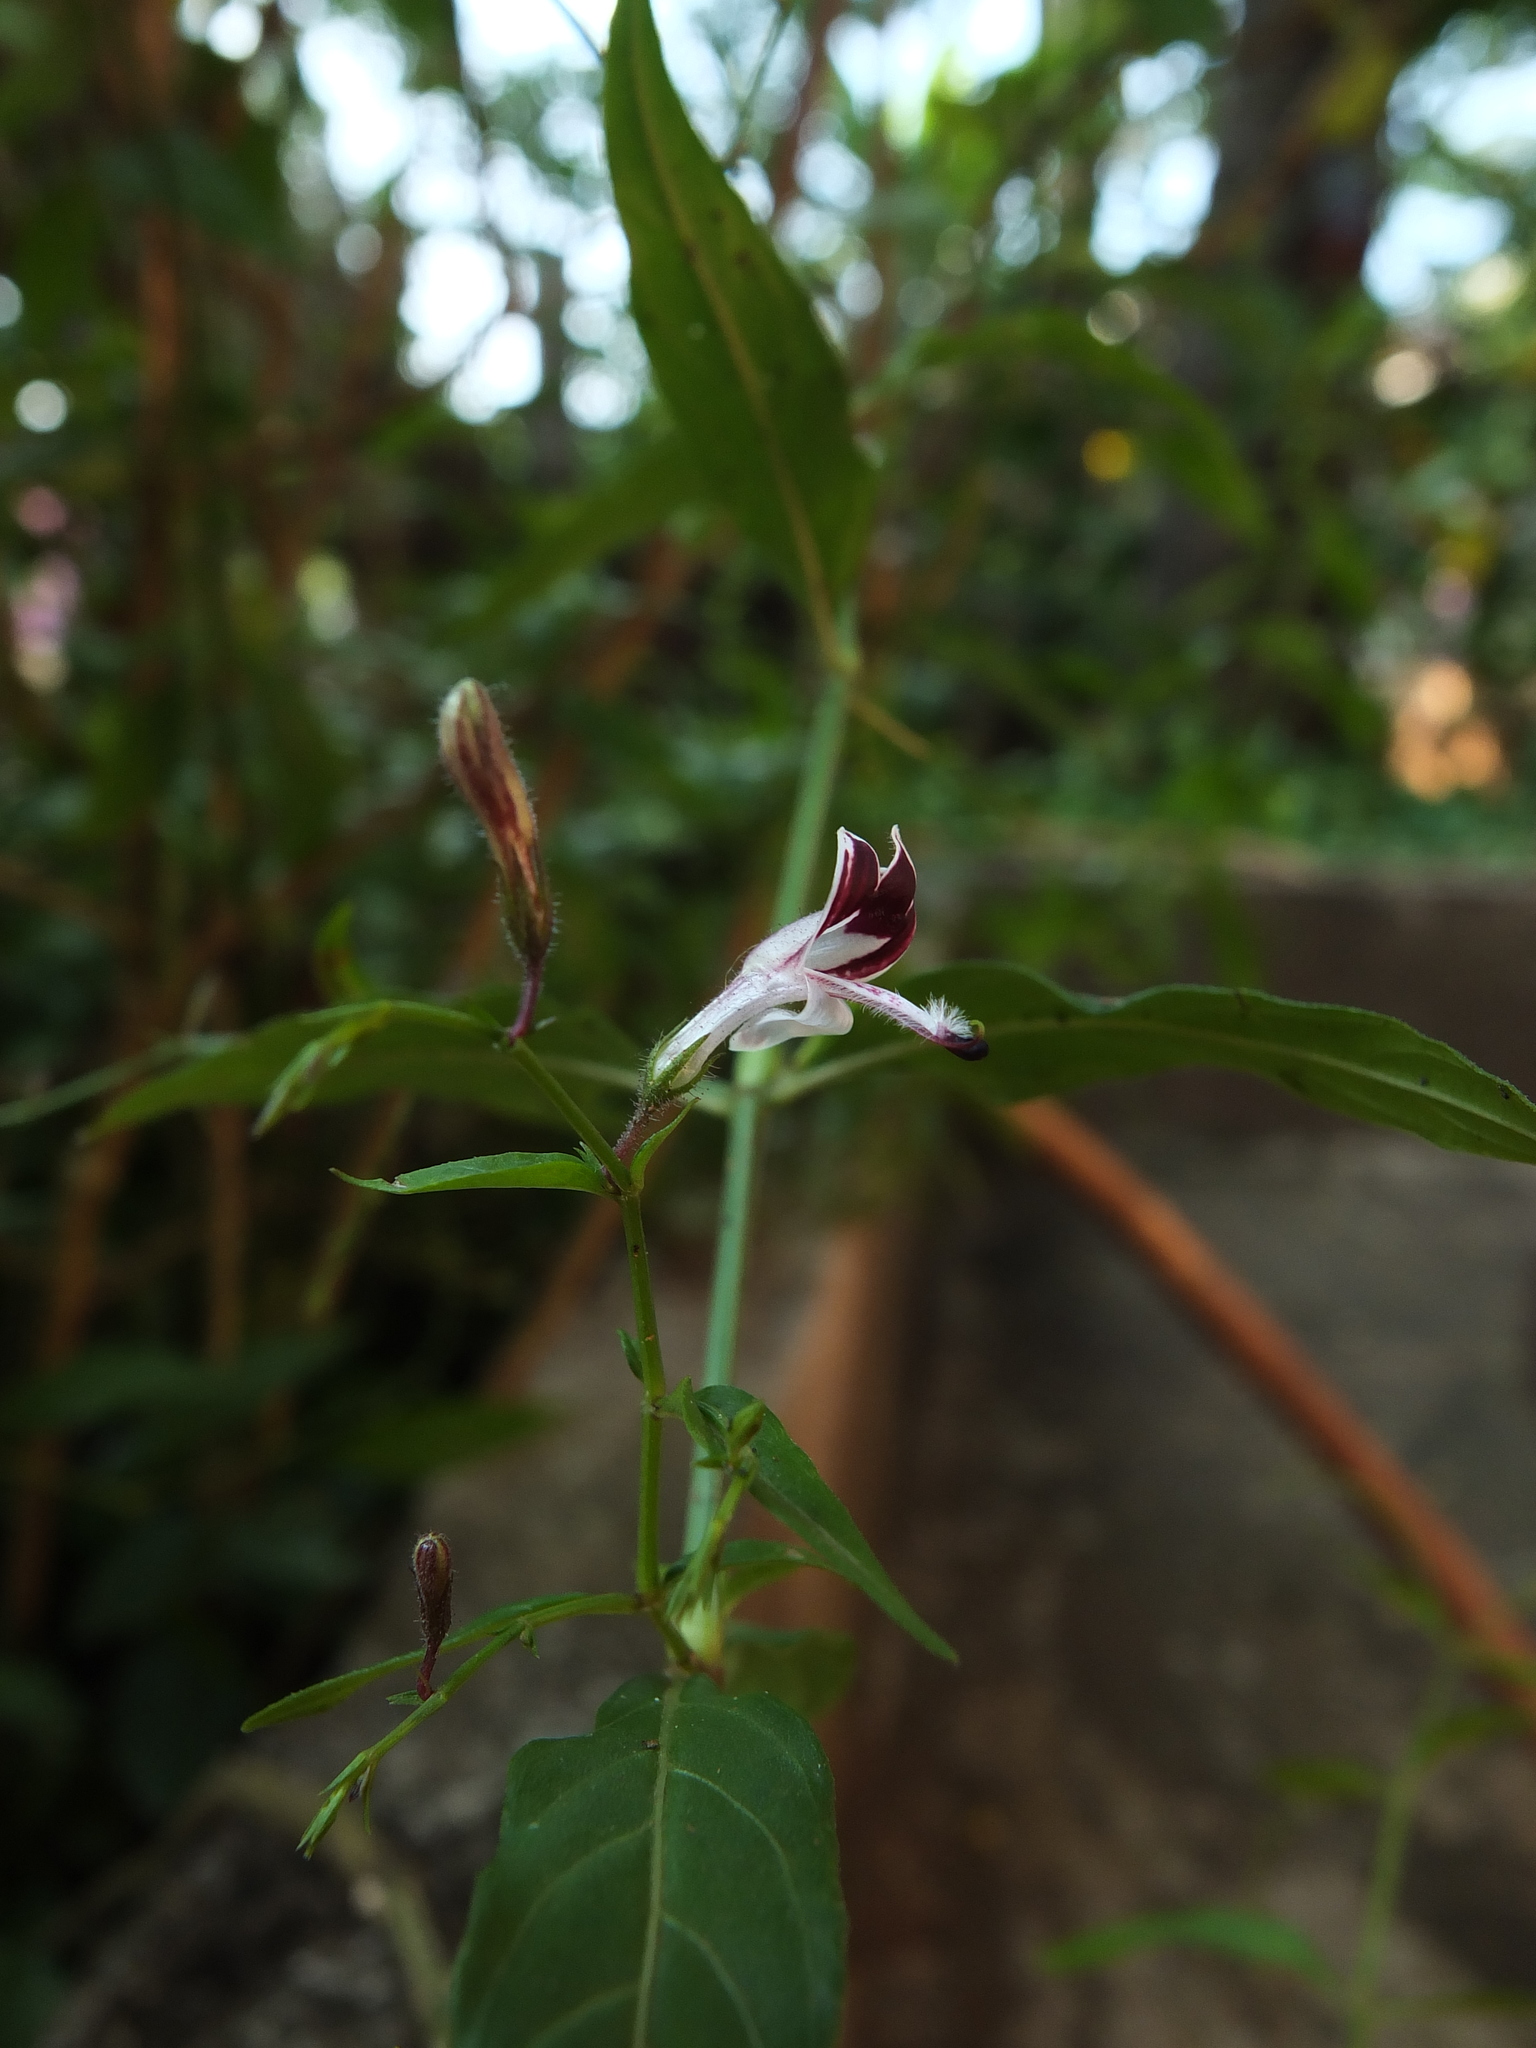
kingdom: Plantae
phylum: Tracheophyta
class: Magnoliopsida
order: Lamiales
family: Acanthaceae
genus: Andrographis
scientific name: Andrographis paniculata
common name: Green chireta
